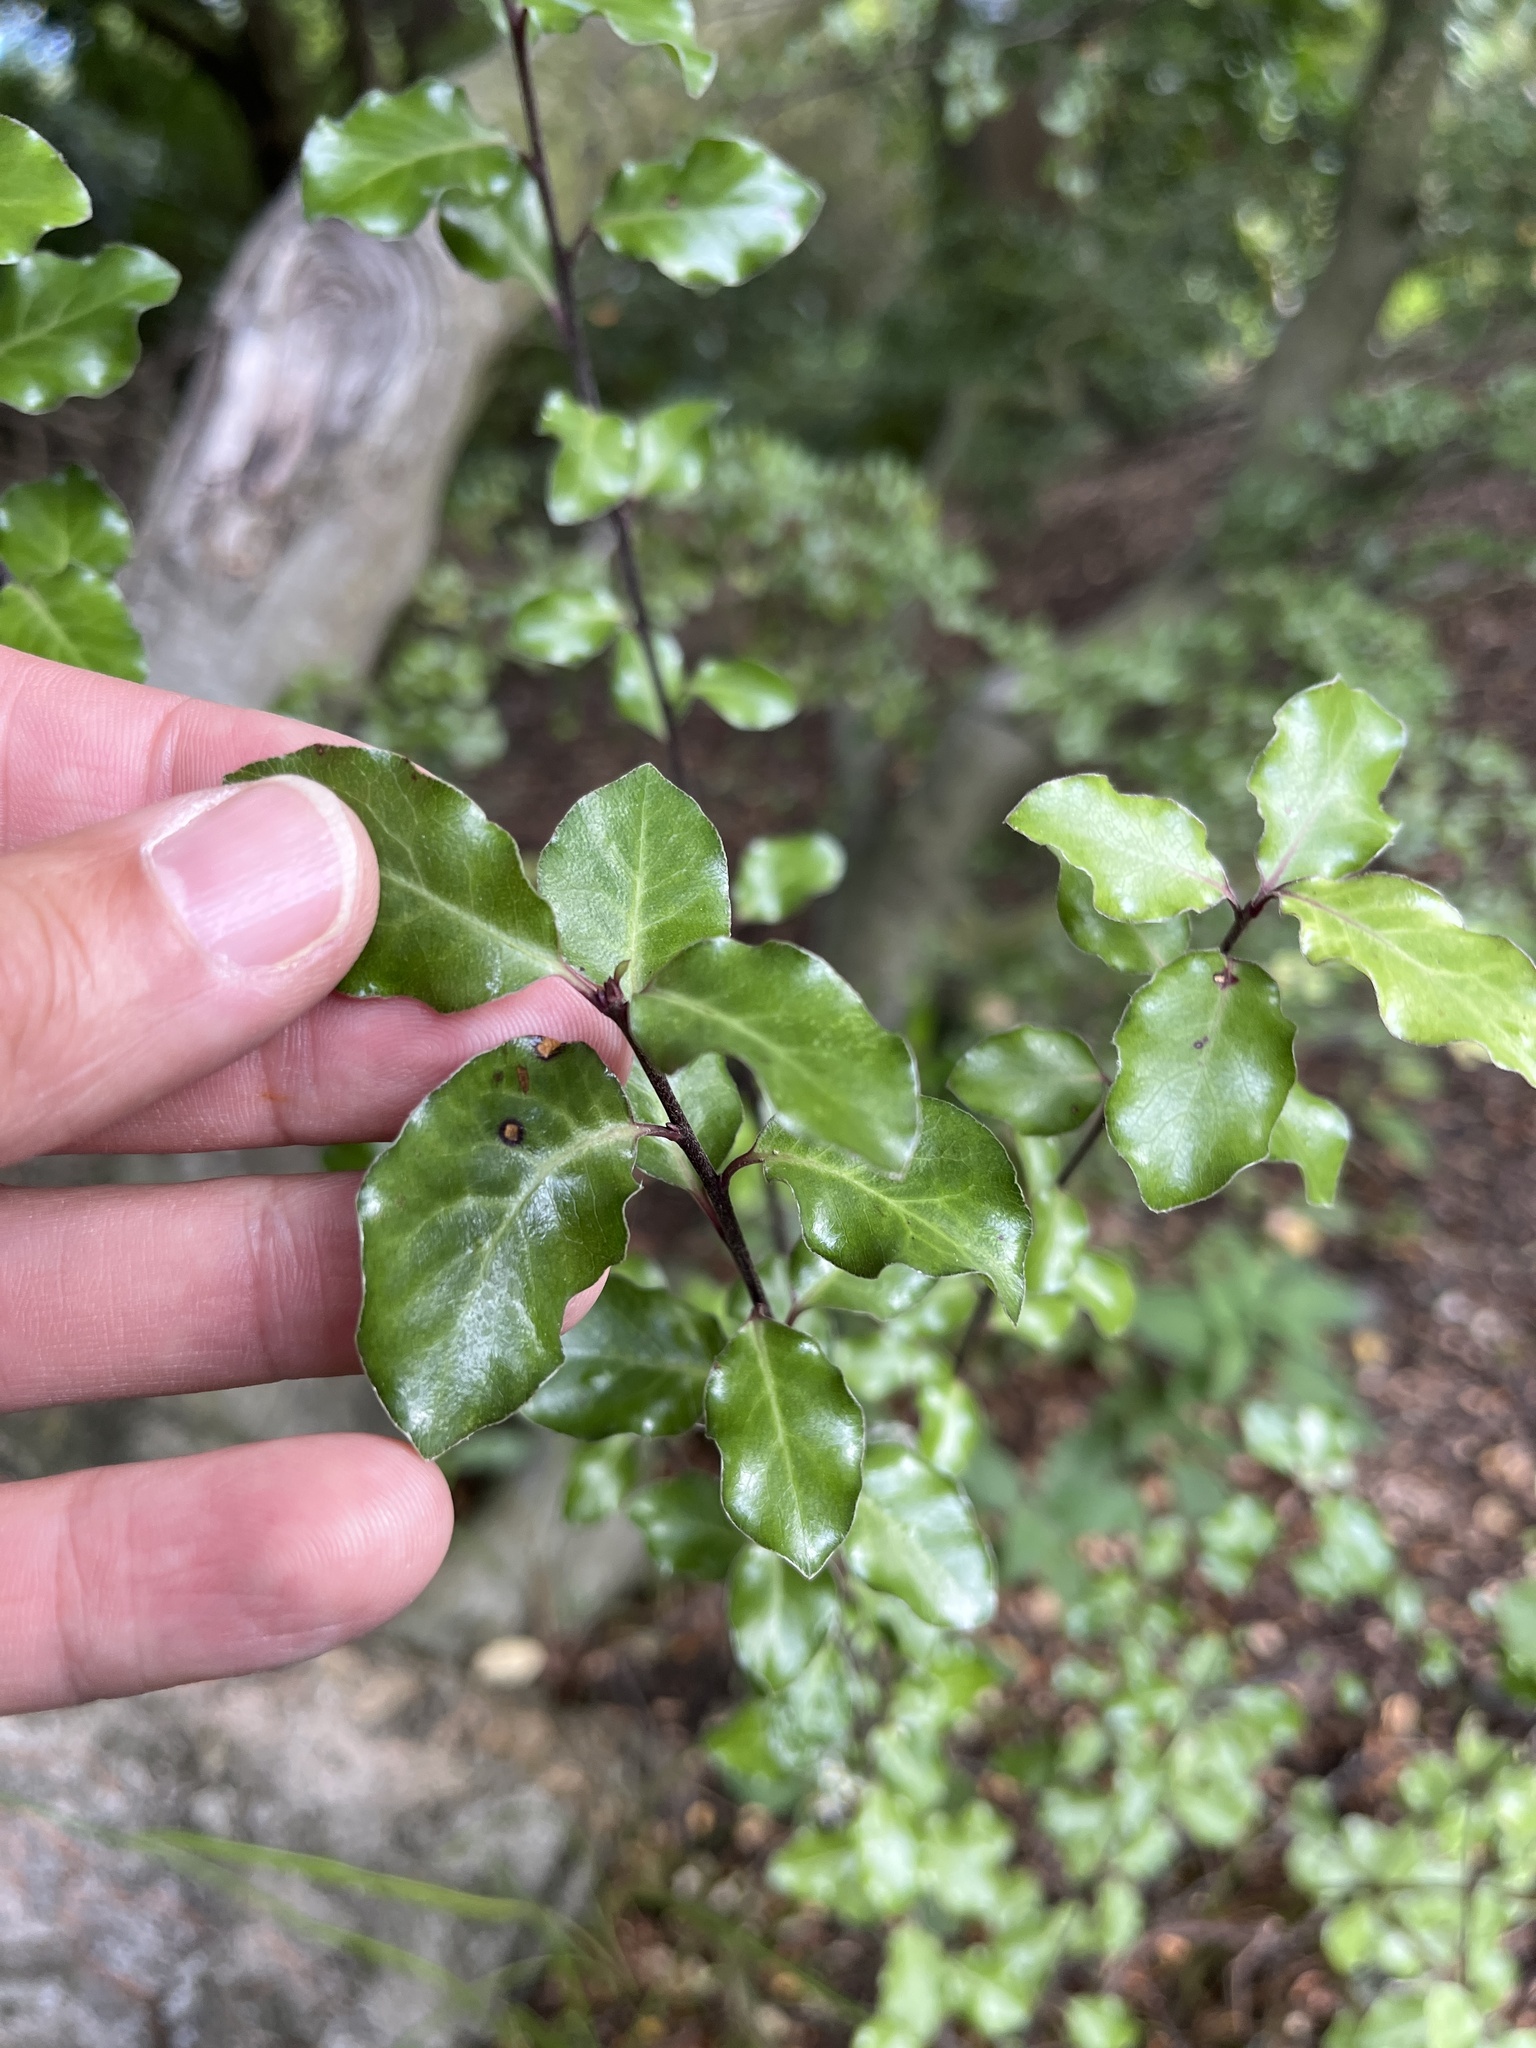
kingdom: Plantae
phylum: Tracheophyta
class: Magnoliopsida
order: Apiales
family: Pittosporaceae
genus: Pittosporum
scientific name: Pittosporum tenuifolium
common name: Kohuhu
